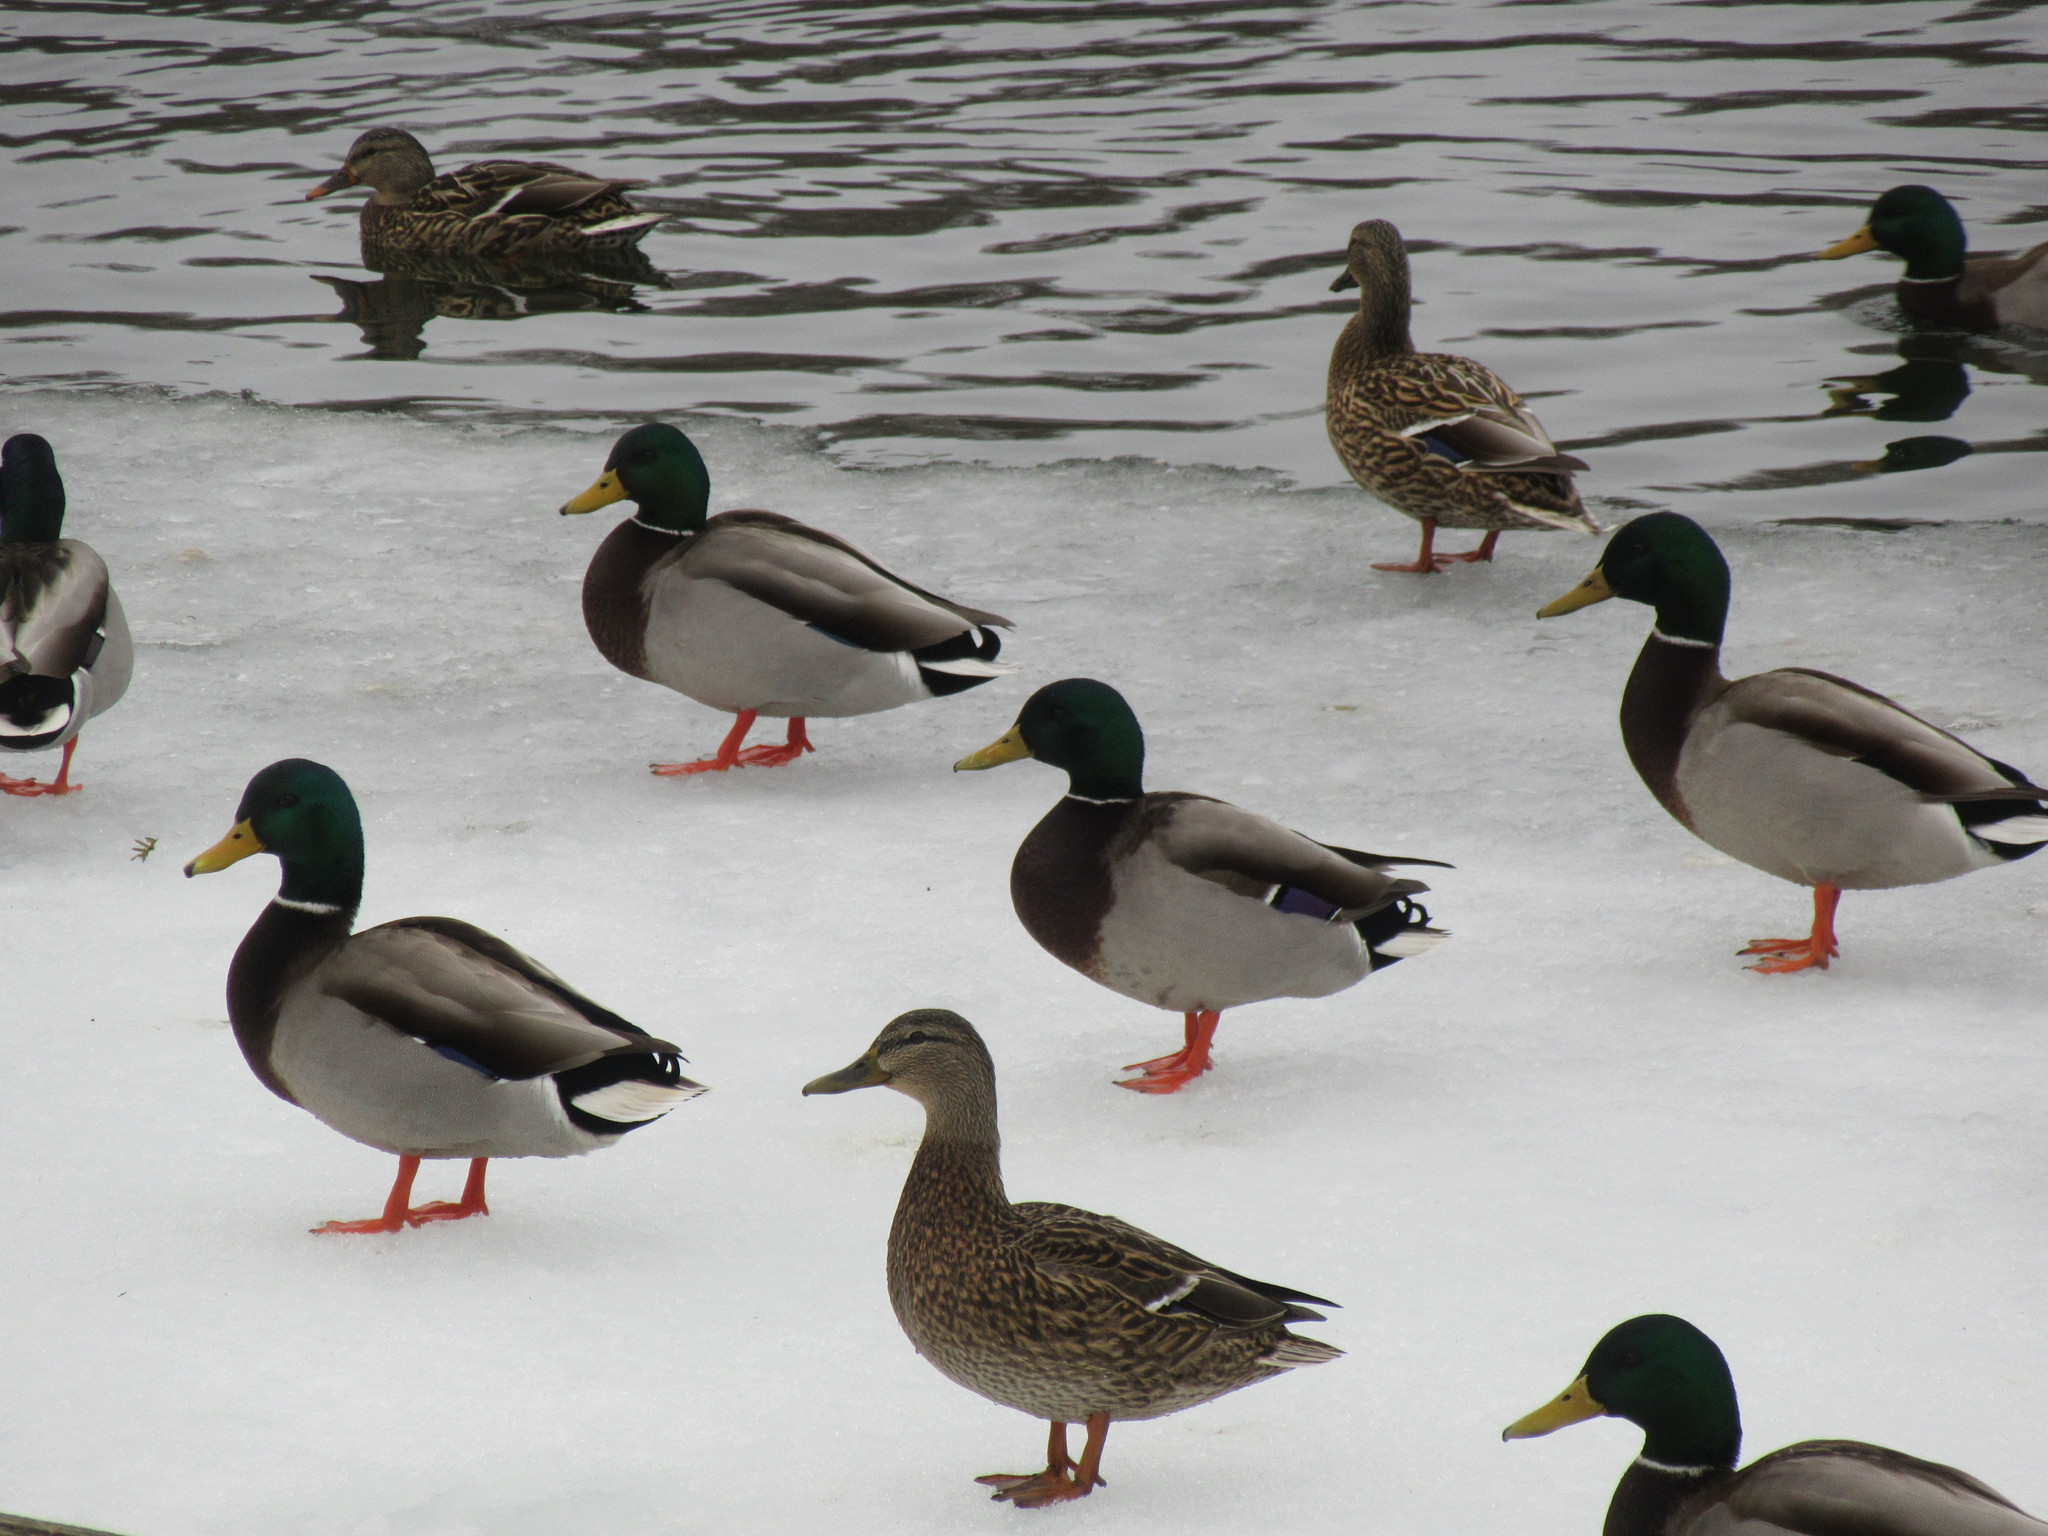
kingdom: Animalia
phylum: Chordata
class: Aves
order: Anseriformes
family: Anatidae
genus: Anas
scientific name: Anas platyrhynchos
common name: Mallard
